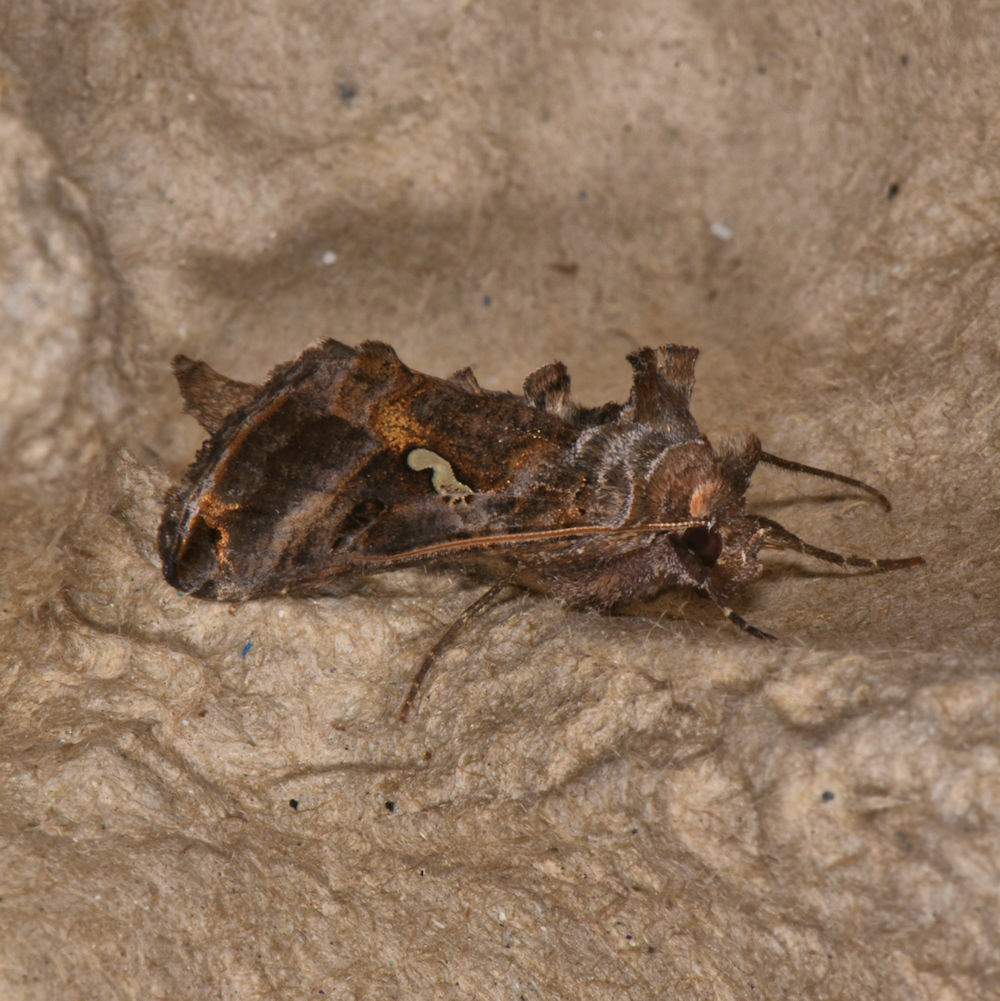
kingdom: Animalia
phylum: Arthropoda
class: Insecta
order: Lepidoptera
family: Noctuidae
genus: Autographa
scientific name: Autographa precationis
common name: Common looper moth
